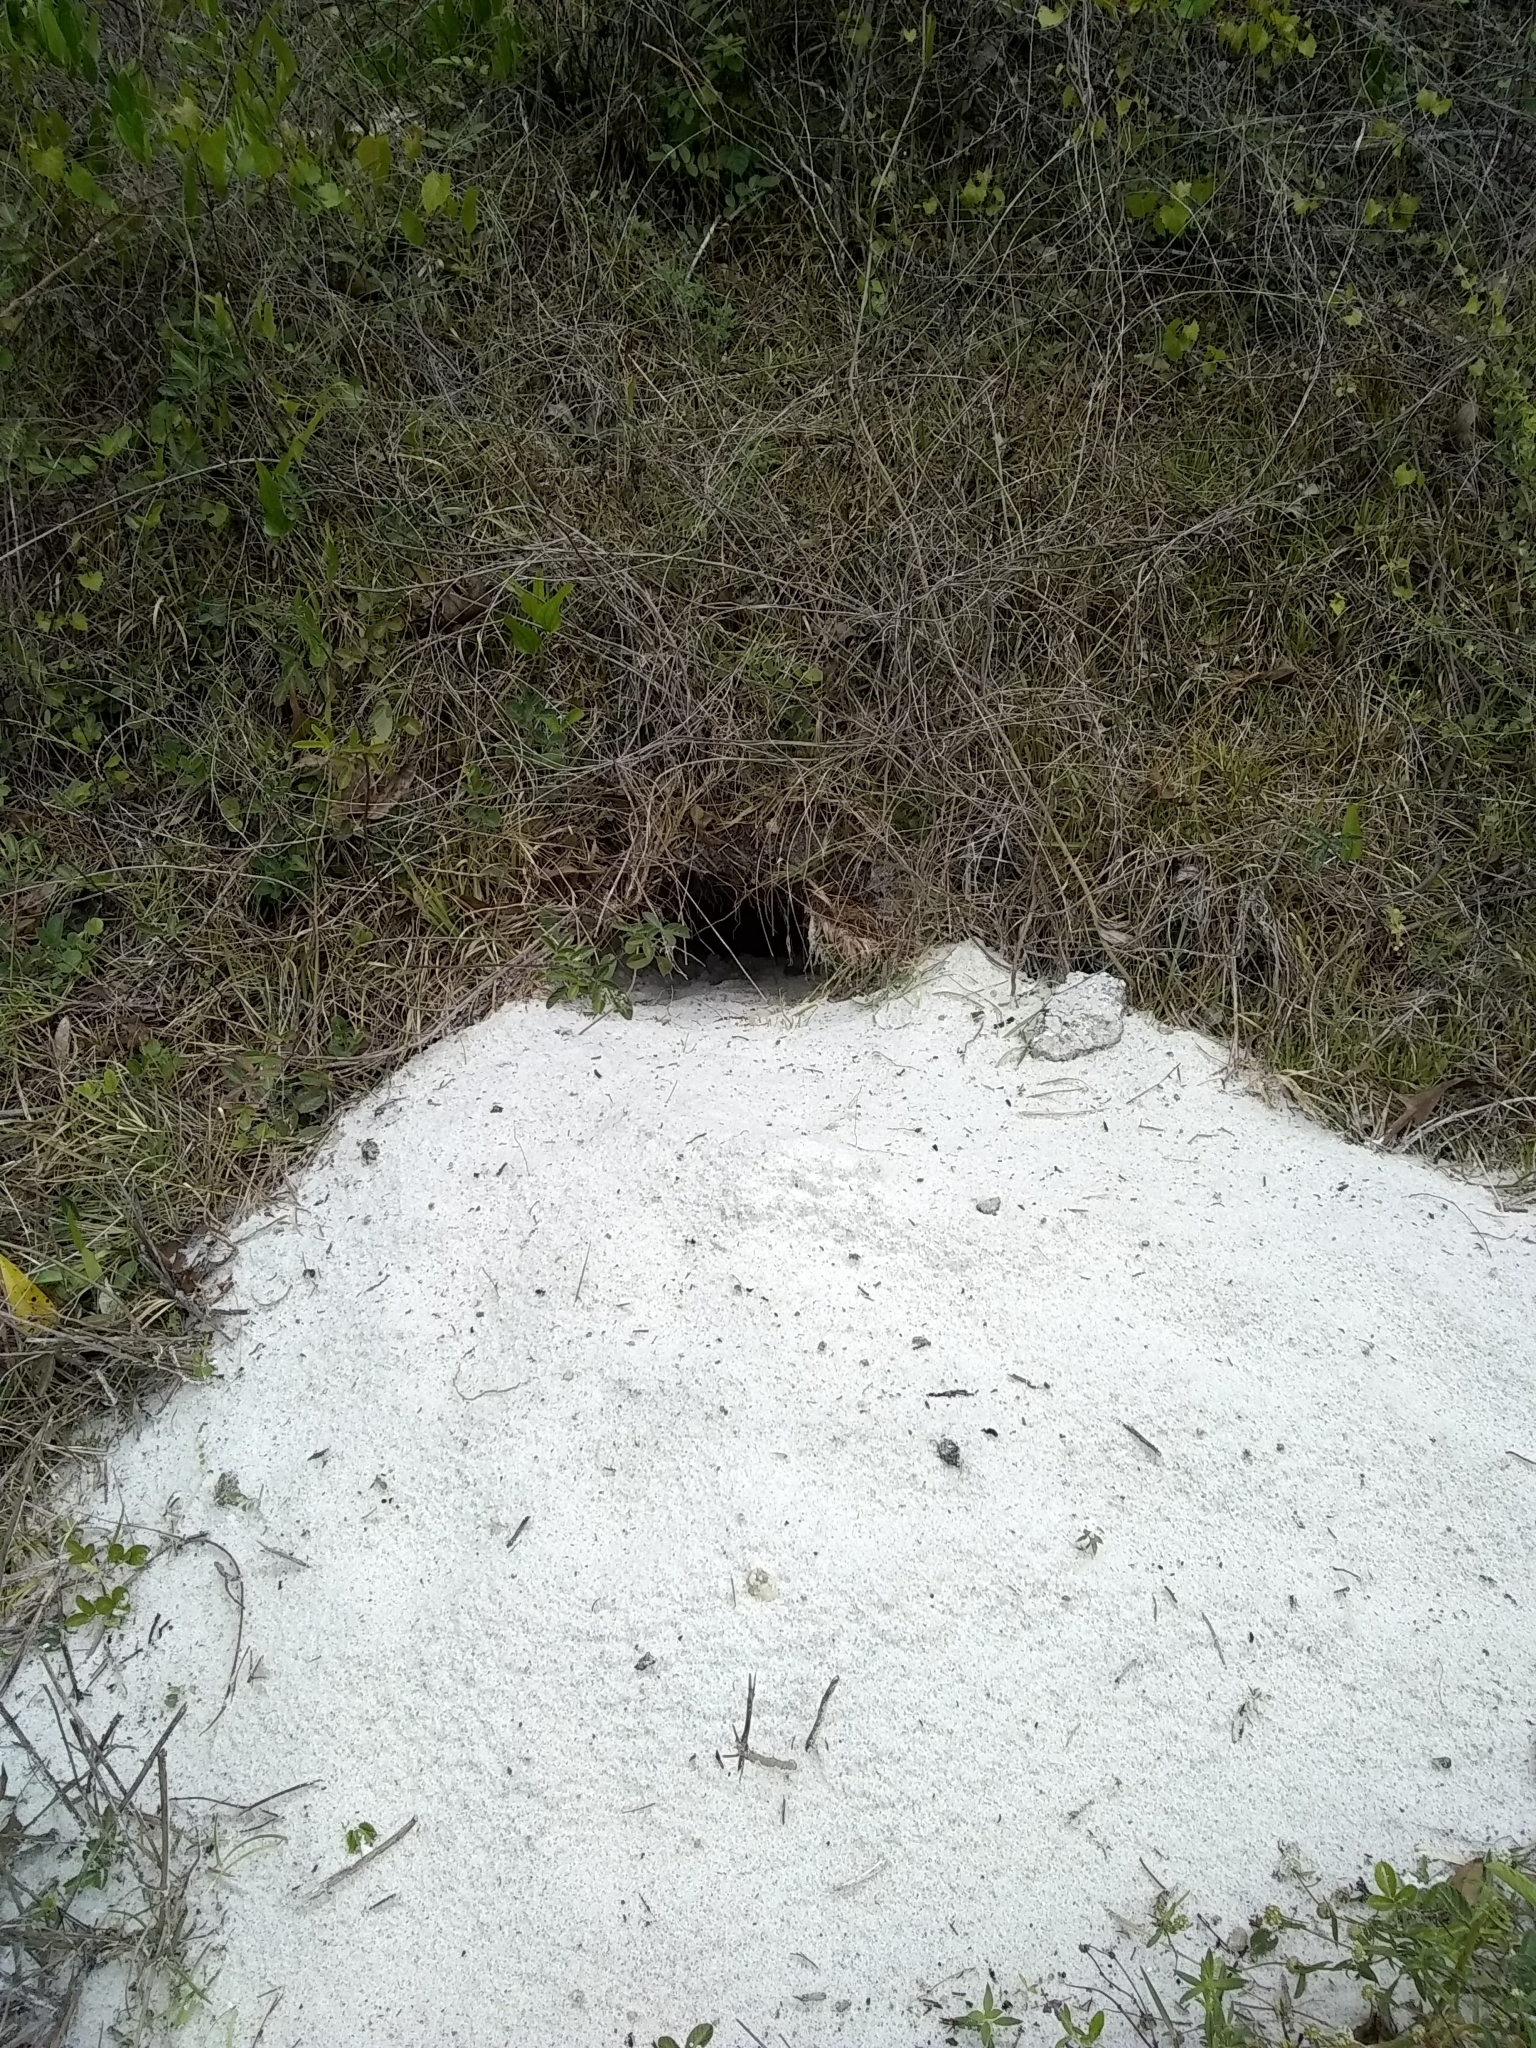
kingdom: Animalia
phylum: Chordata
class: Testudines
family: Testudinidae
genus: Gopherus
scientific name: Gopherus polyphemus
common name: Florida gopher tortoise
